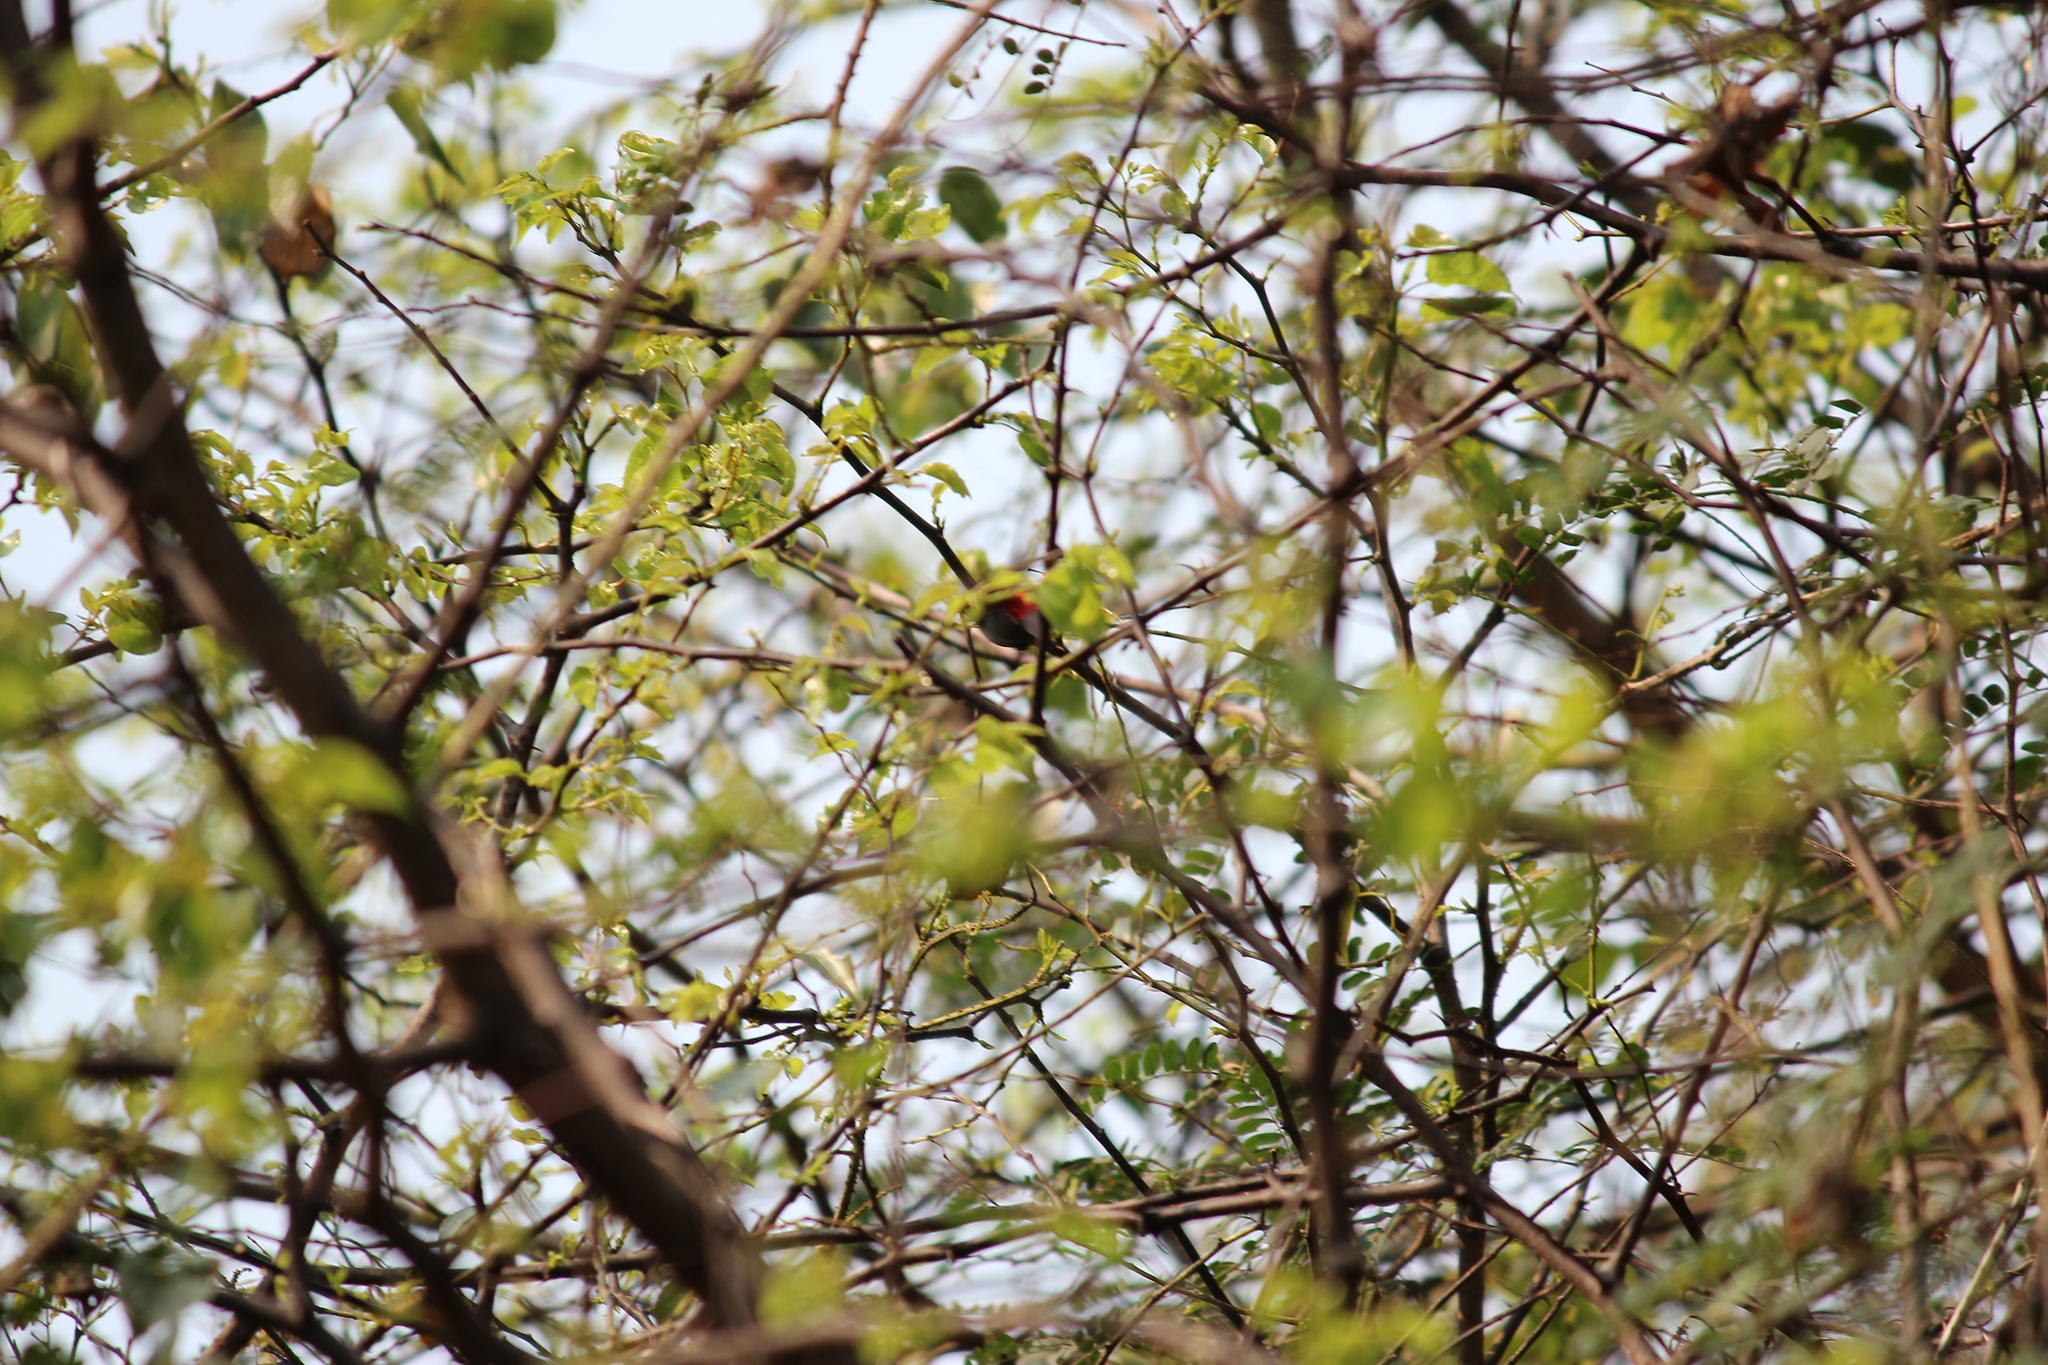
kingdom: Animalia
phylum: Chordata
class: Aves
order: Passeriformes
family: Estrildidae
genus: Estrilda
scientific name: Estrilda perreini
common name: Grey waxbill
